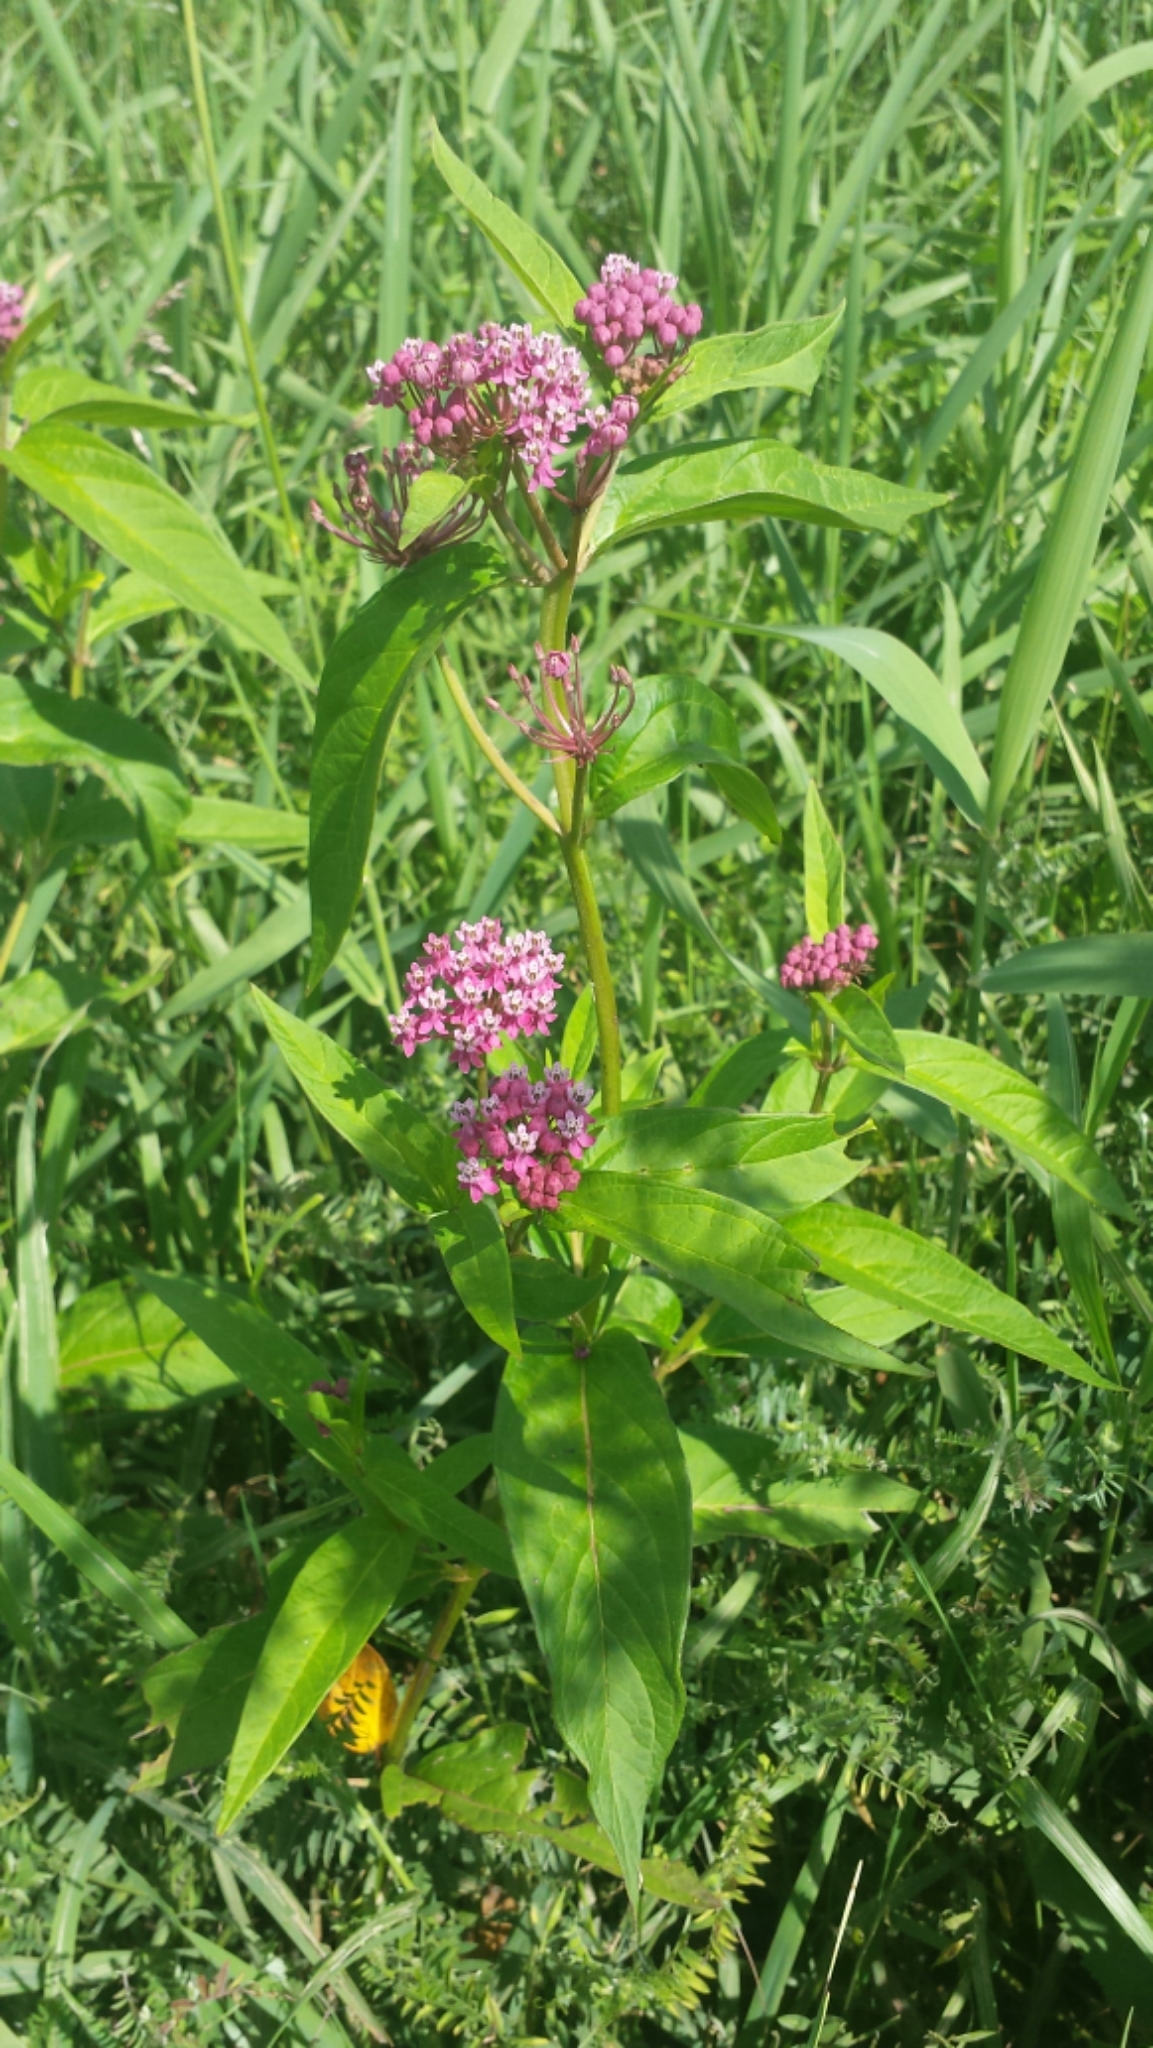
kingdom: Plantae
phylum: Tracheophyta
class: Magnoliopsida
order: Gentianales
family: Apocynaceae
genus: Asclepias
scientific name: Asclepias incarnata
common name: Swamp milkweed
